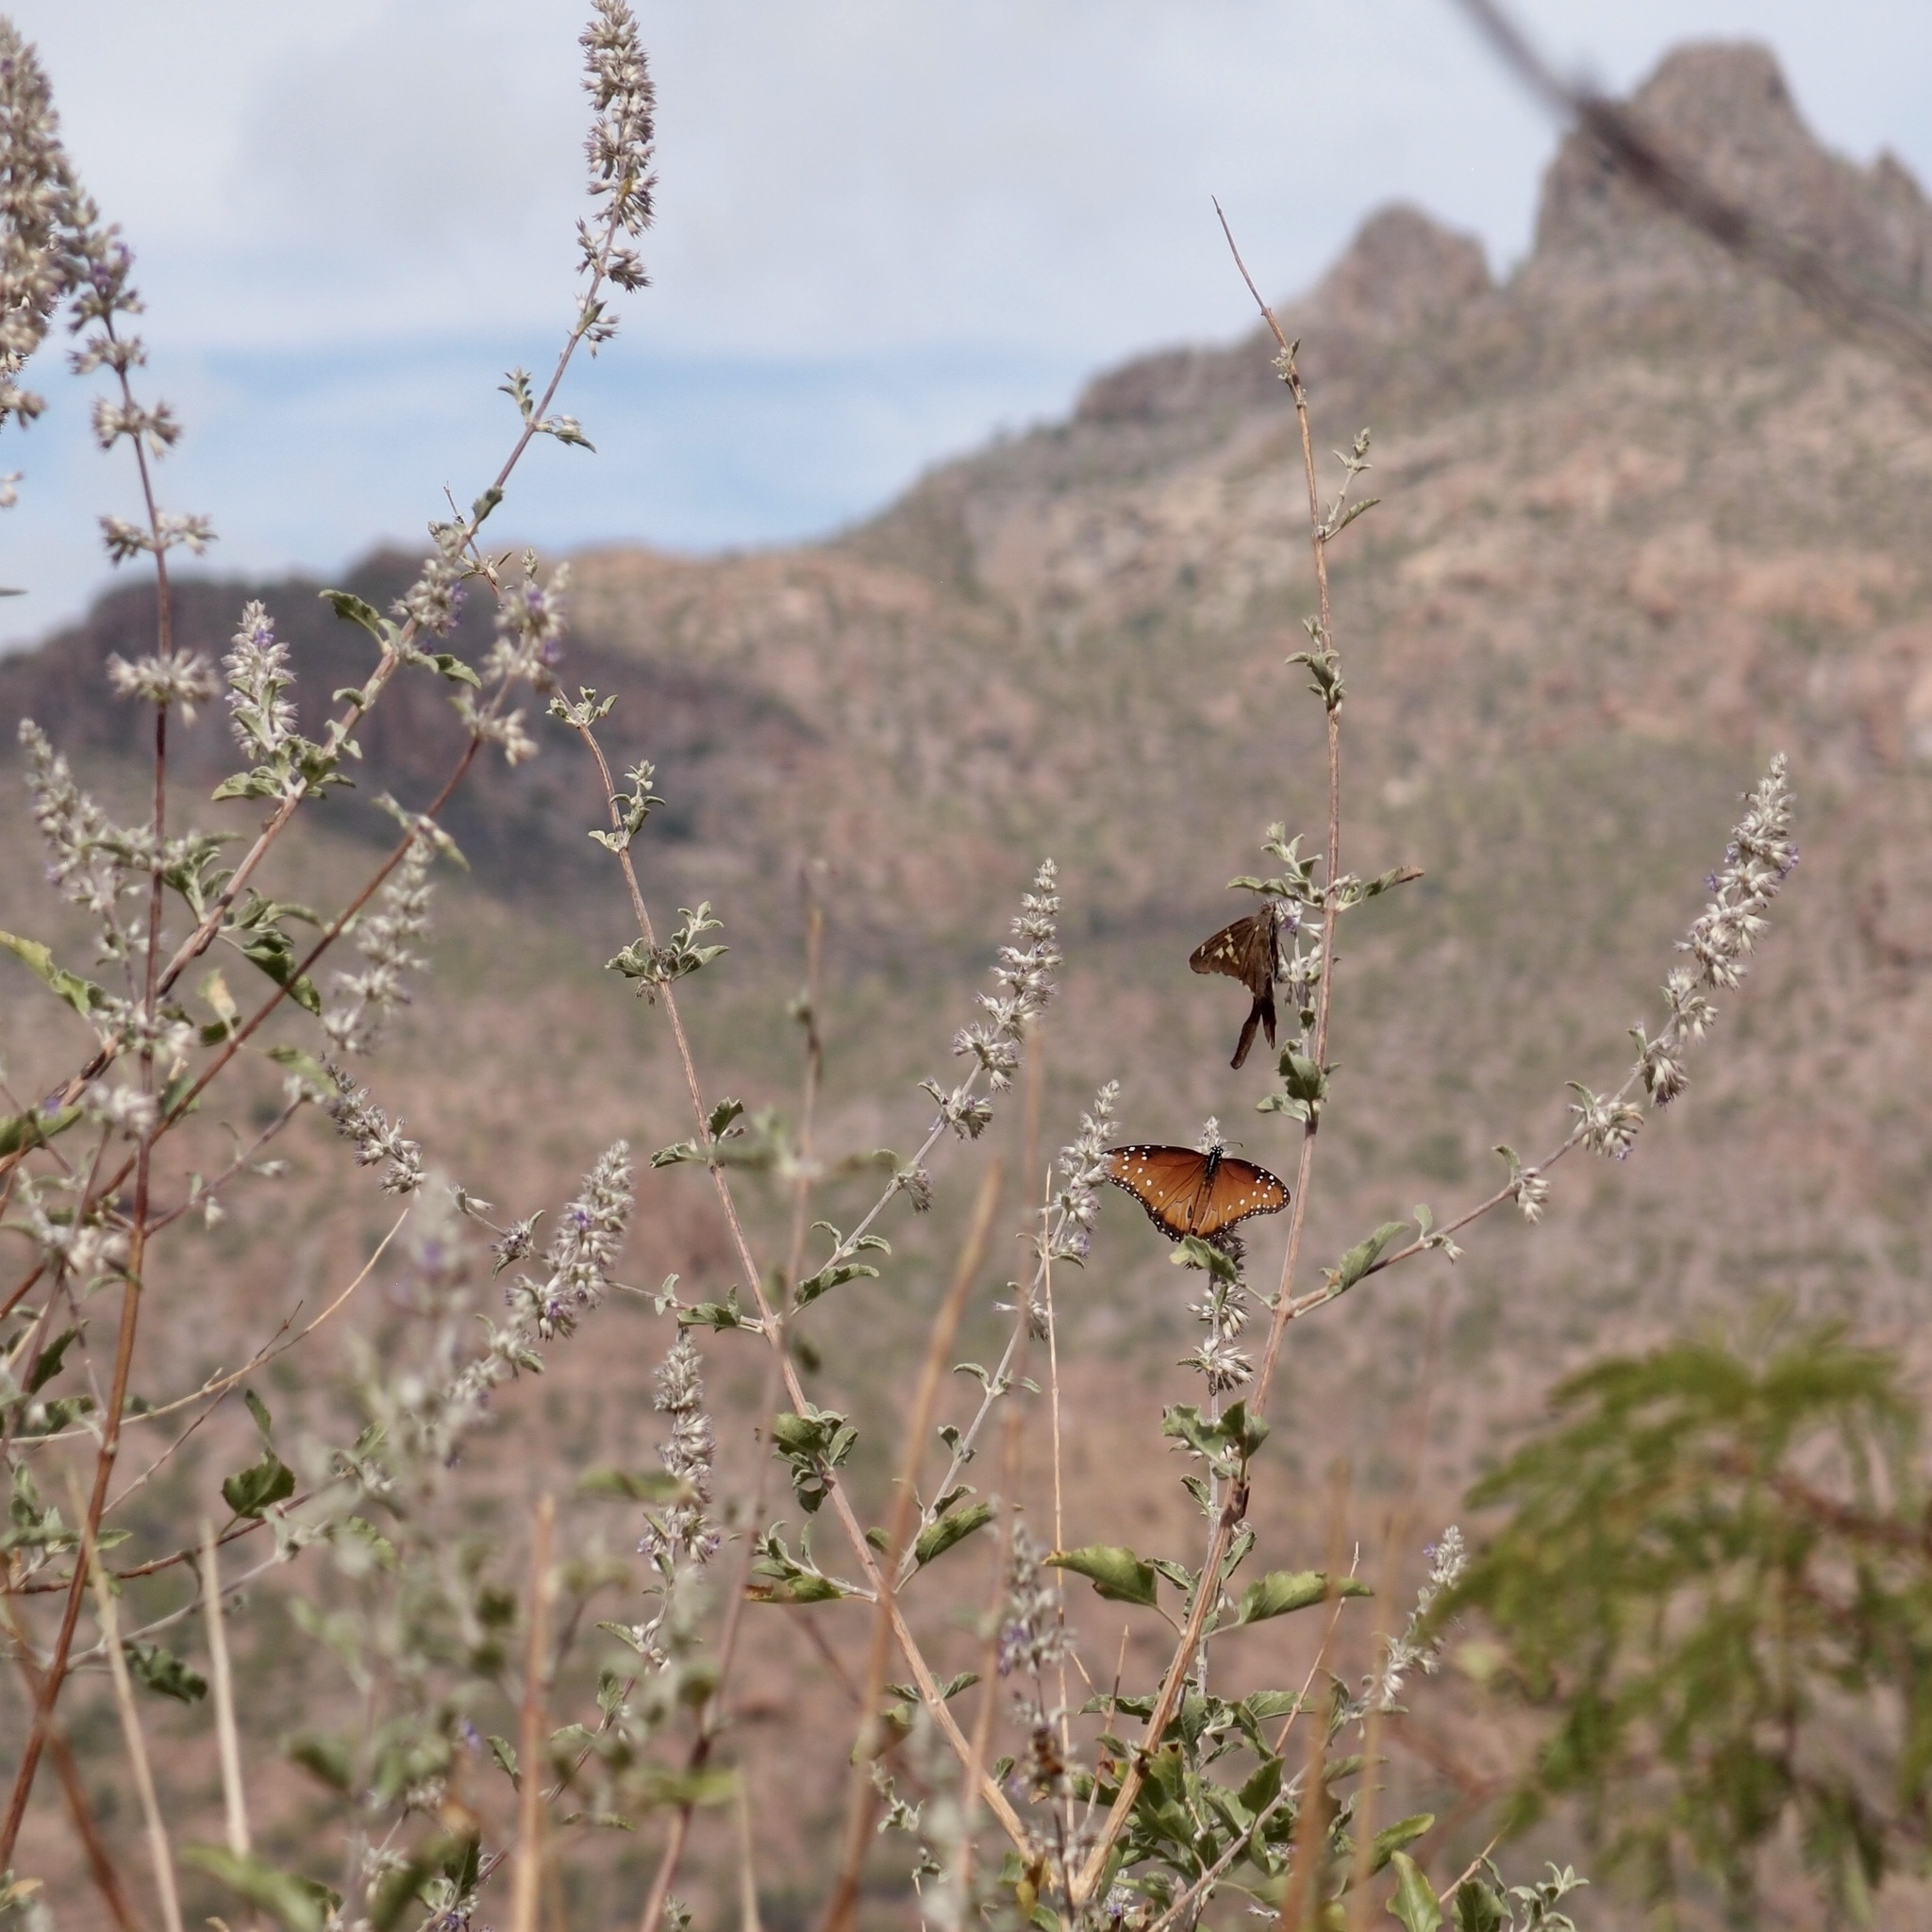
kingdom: Plantae
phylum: Tracheophyta
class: Magnoliopsida
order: Lamiales
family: Lamiaceae
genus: Condea
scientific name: Condea emoryi
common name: Chia
